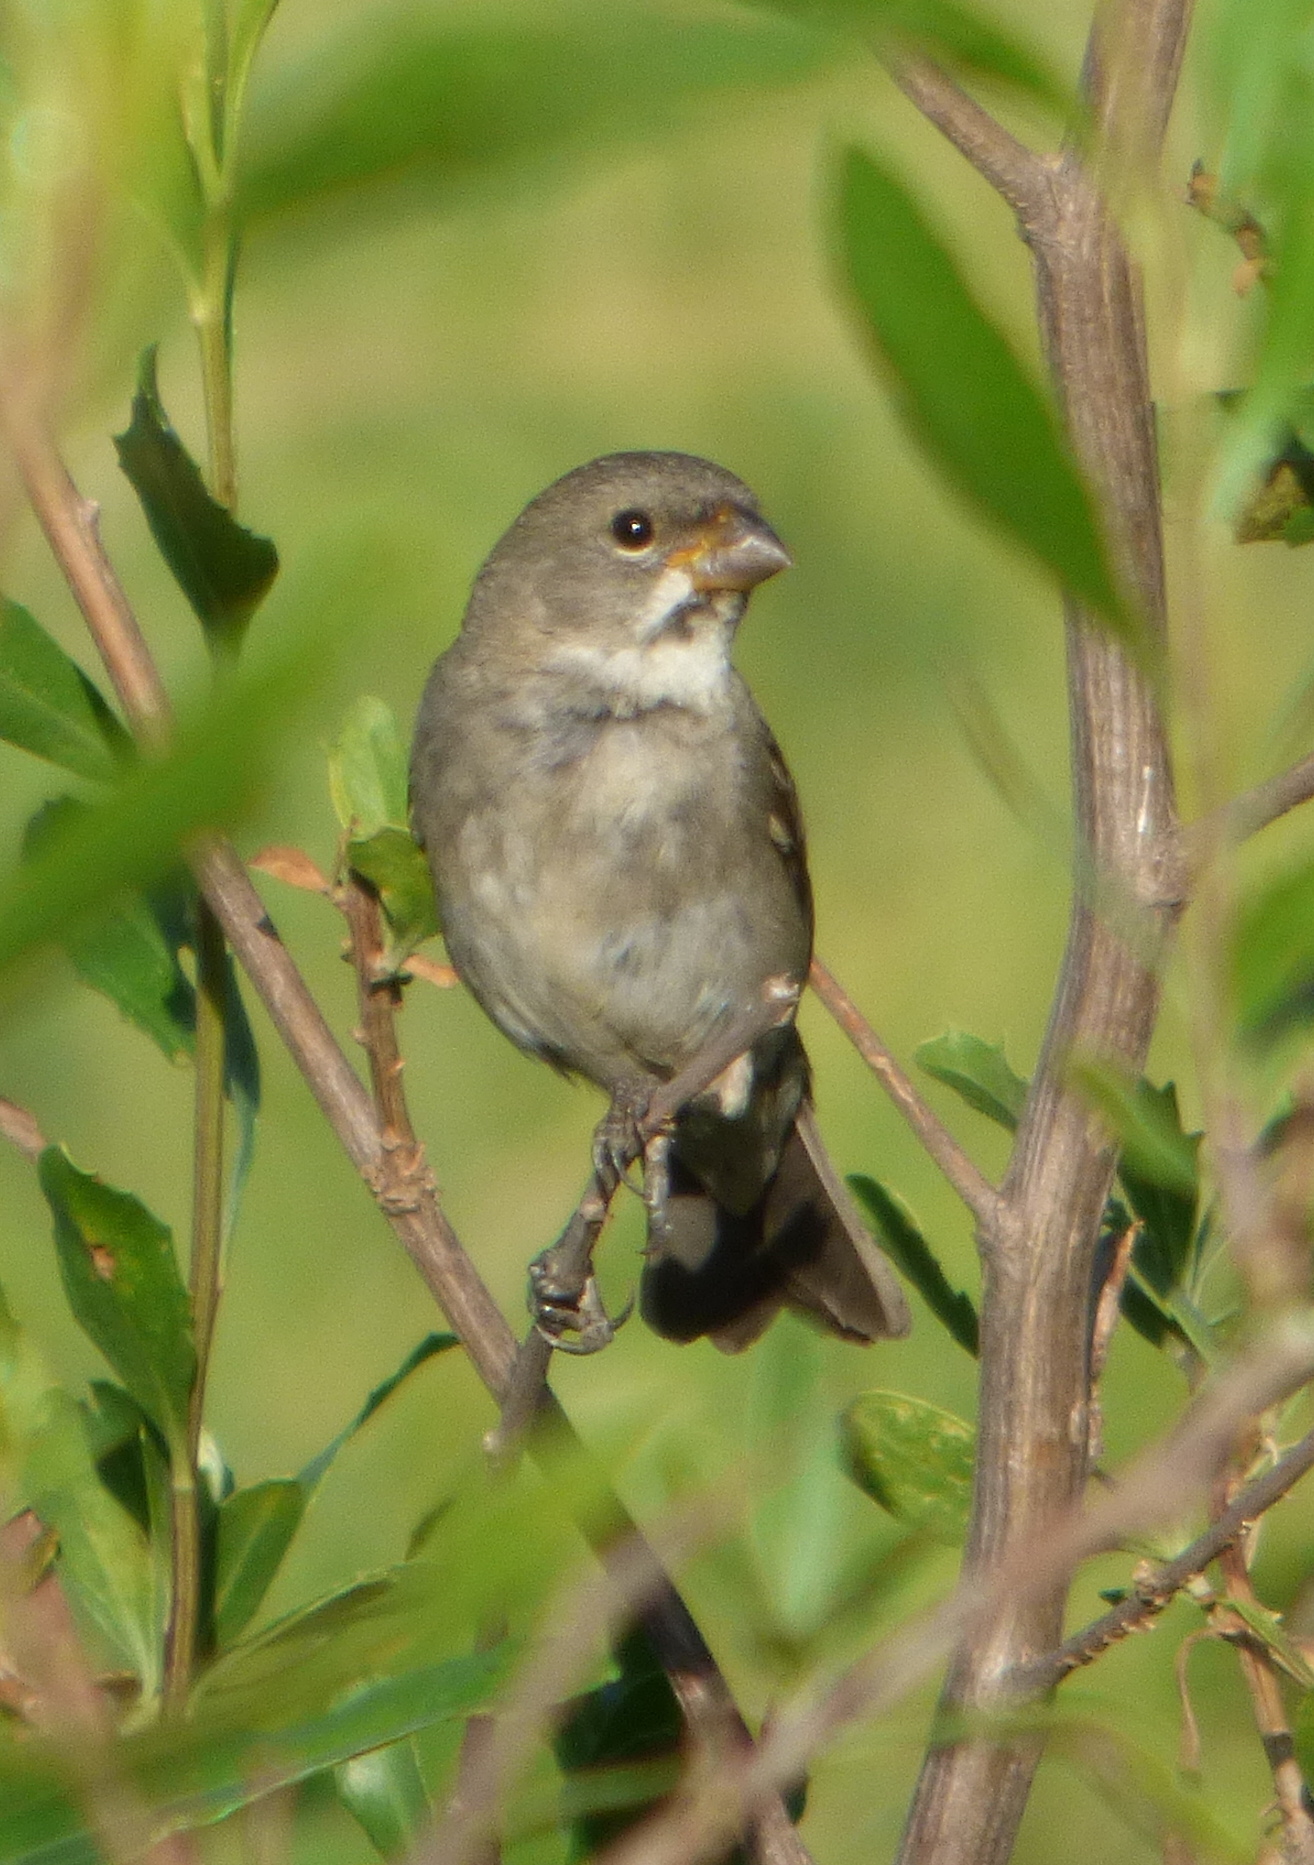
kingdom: Animalia
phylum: Chordata
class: Aves
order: Passeriformes
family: Thraupidae
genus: Sporophila
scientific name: Sporophila caerulescens
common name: Double-collared seedeater
